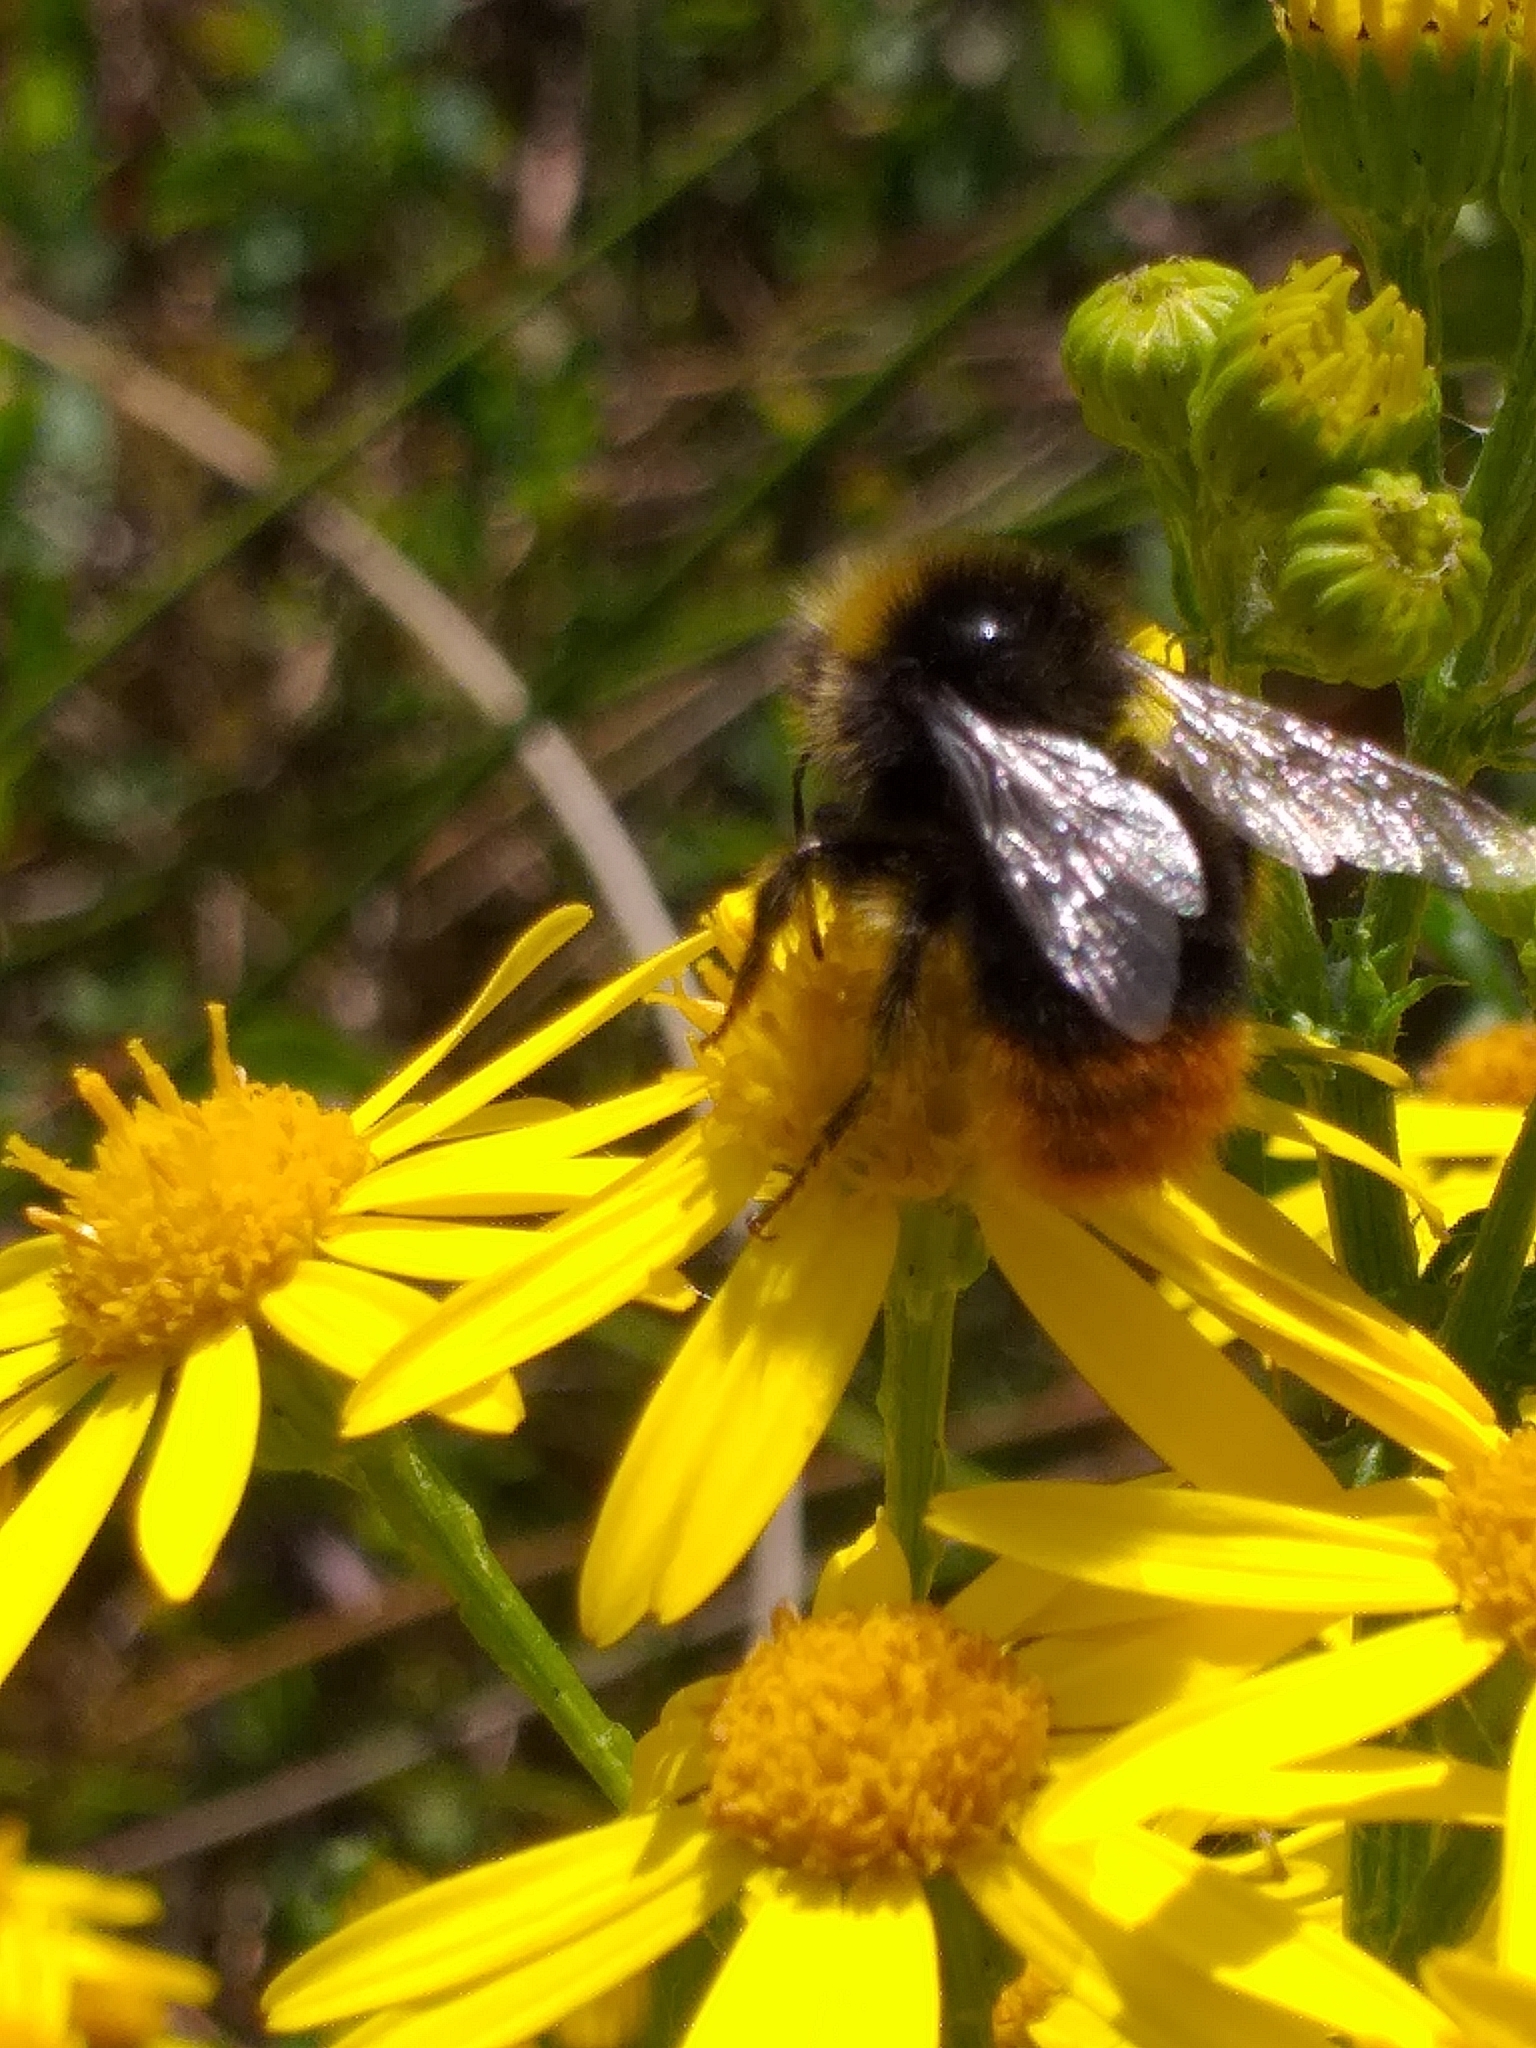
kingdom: Animalia
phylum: Arthropoda
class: Insecta
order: Hymenoptera
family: Apidae
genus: Bombus
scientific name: Bombus lapidarius
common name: Large red-tailed humble-bee
